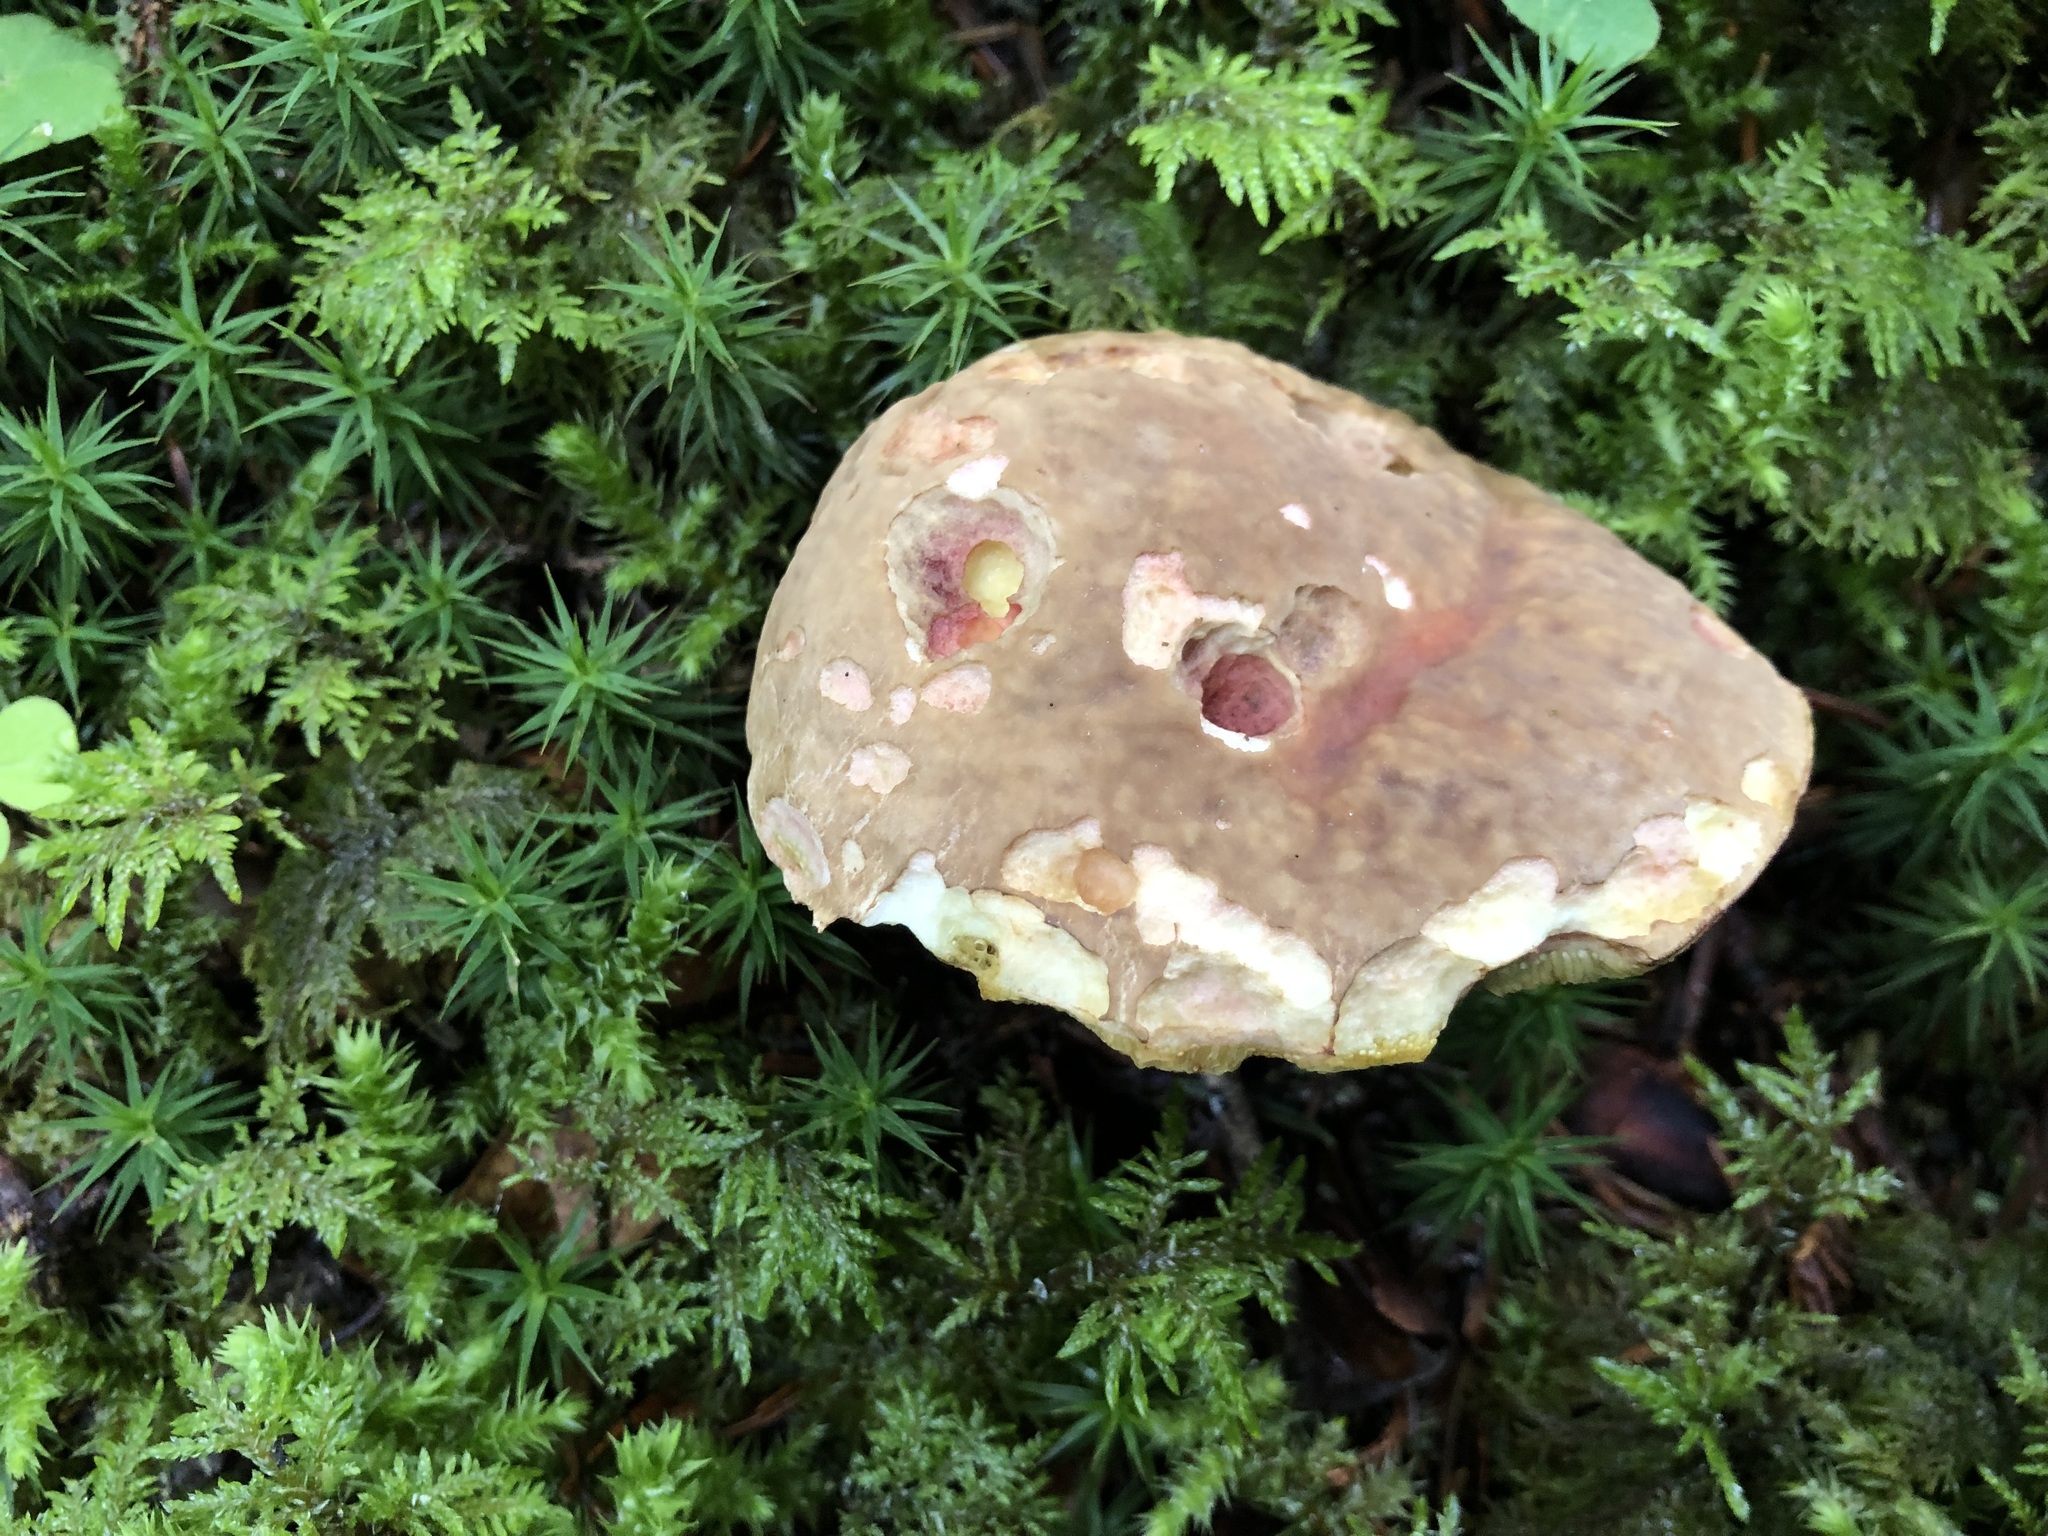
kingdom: Fungi
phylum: Basidiomycota
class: Agaricomycetes
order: Boletales
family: Boletaceae
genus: Xerocomellus
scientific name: Xerocomellus chrysenteron
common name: Red-cracking bolete
